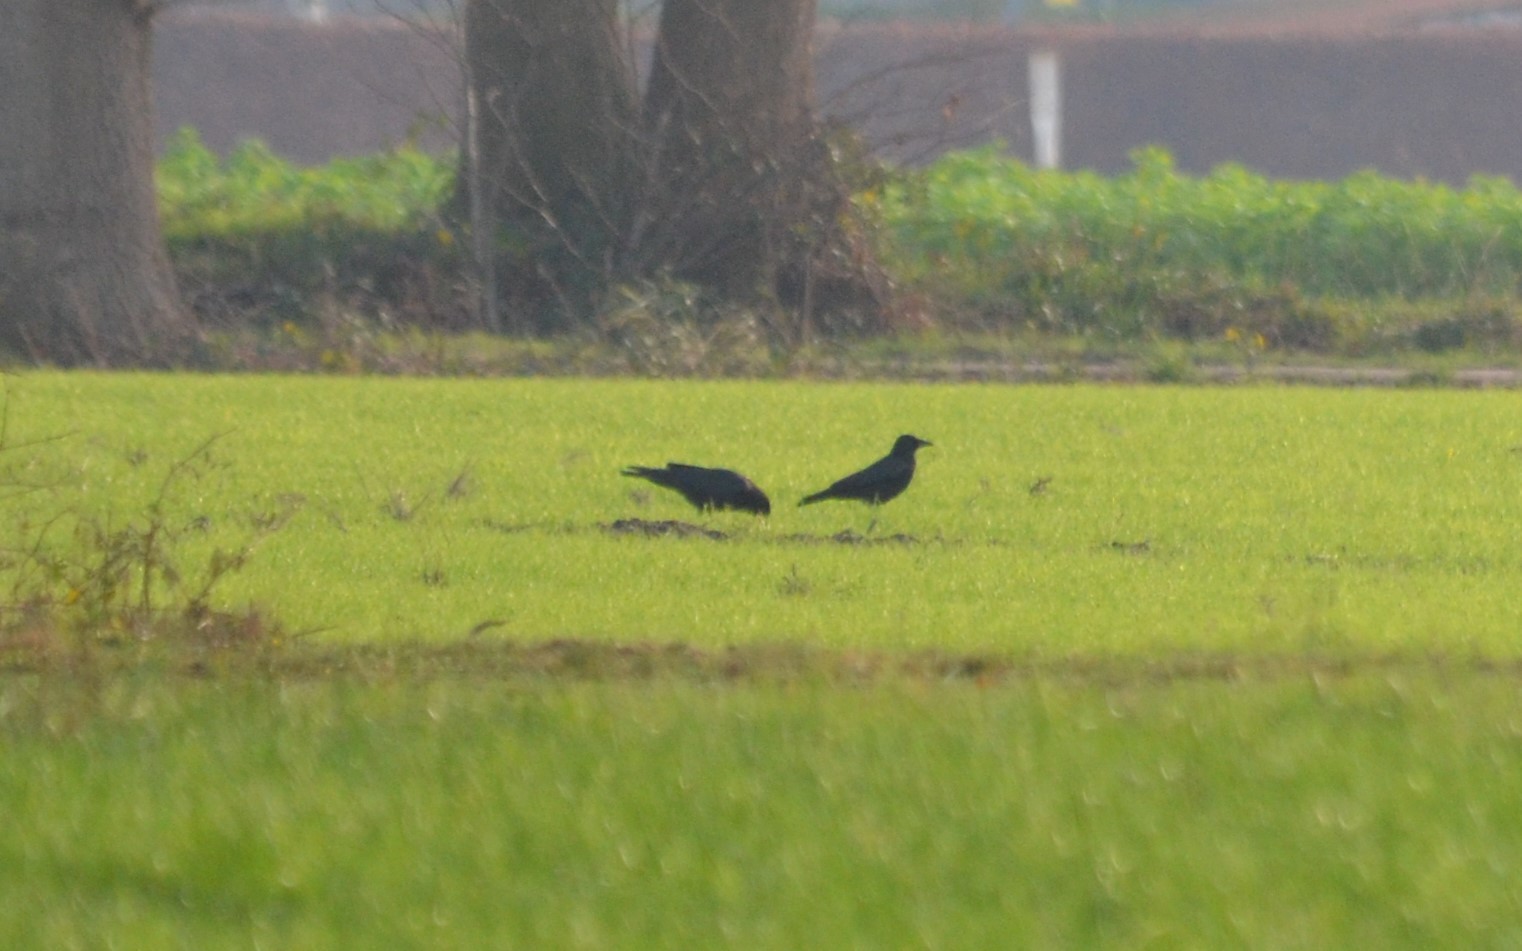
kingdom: Animalia
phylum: Chordata
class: Aves
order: Passeriformes
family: Corvidae
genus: Corvus
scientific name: Corvus corone
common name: Carrion crow
